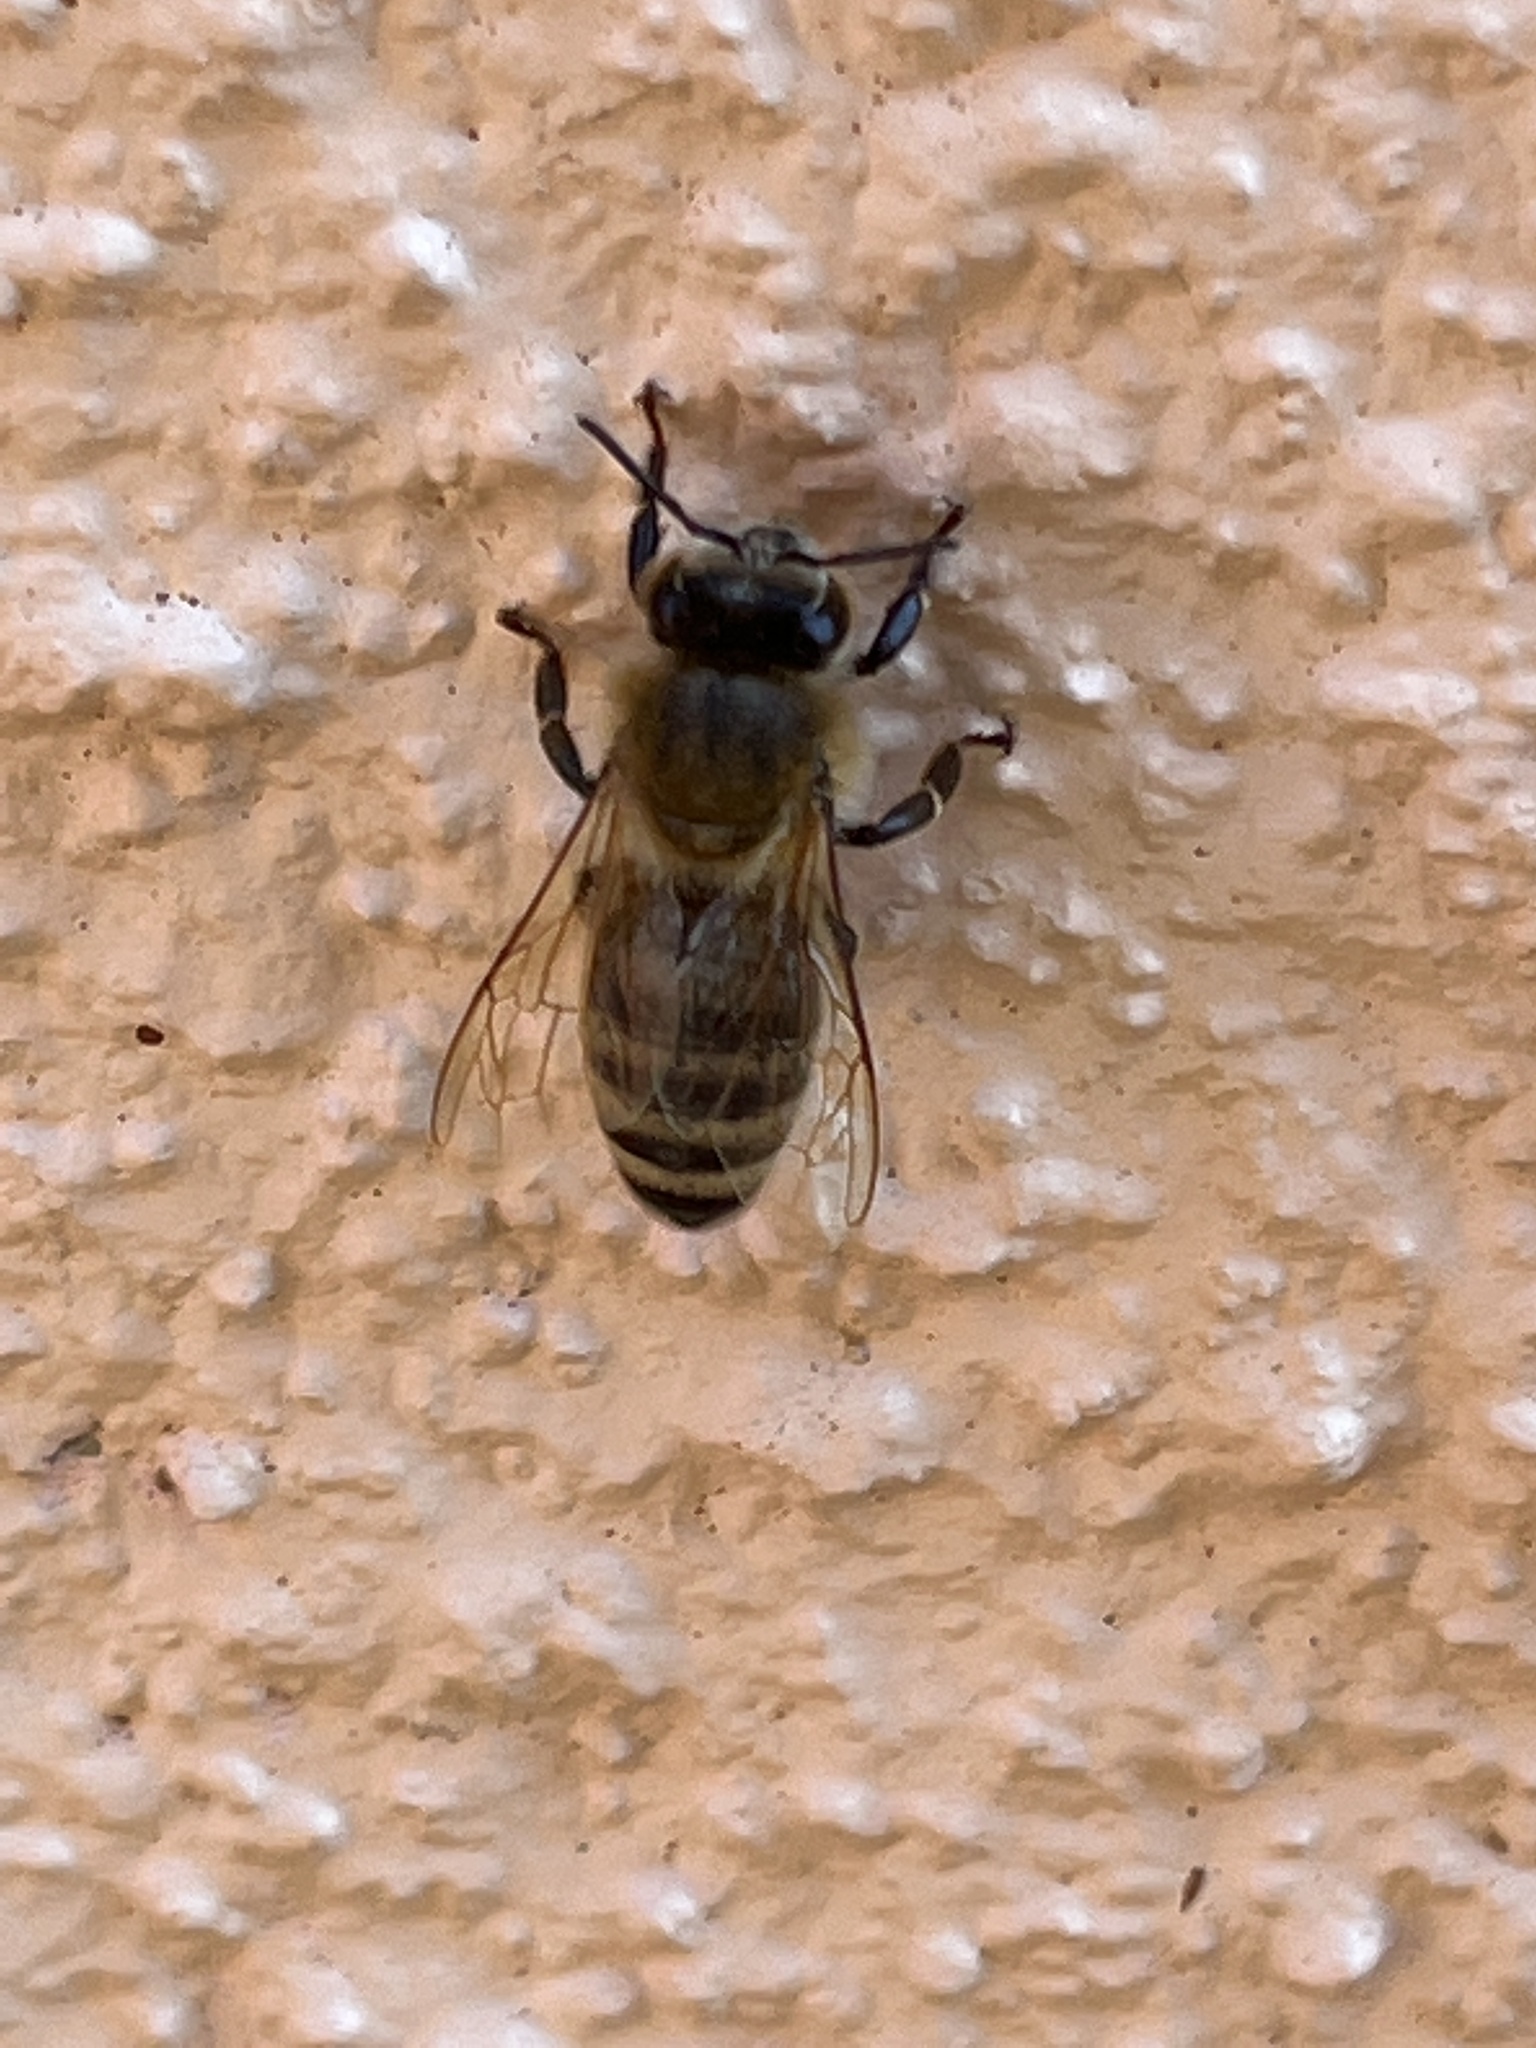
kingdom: Animalia
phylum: Arthropoda
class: Insecta
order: Hymenoptera
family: Apidae
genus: Apis
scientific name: Apis mellifera
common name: Honey bee
